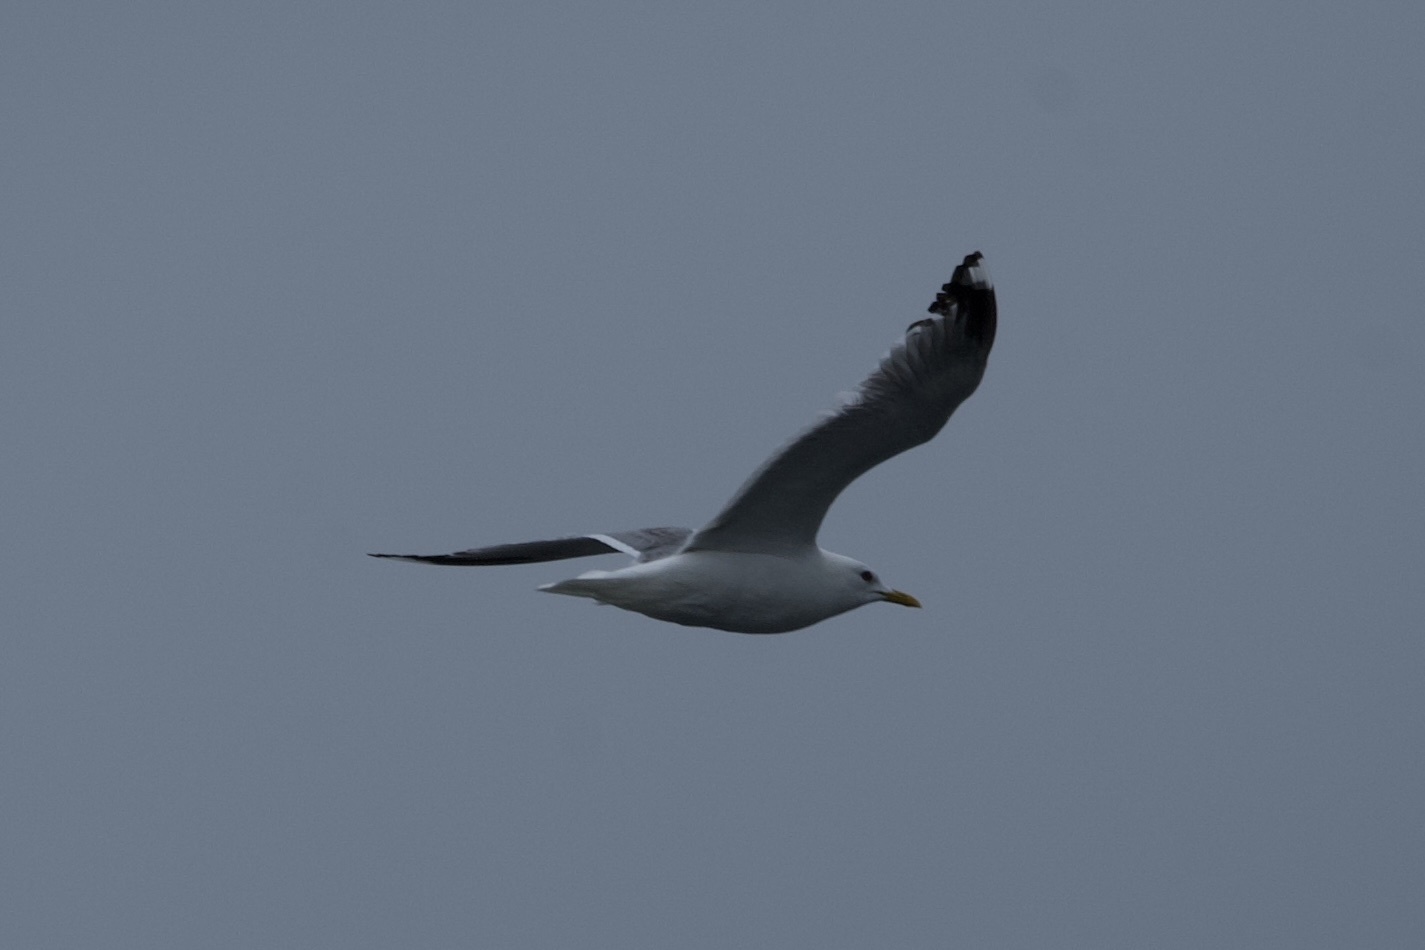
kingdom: Animalia
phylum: Chordata
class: Aves
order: Charadriiformes
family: Laridae
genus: Larus
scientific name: Larus brachyrhynchus
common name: Short-billed gull
